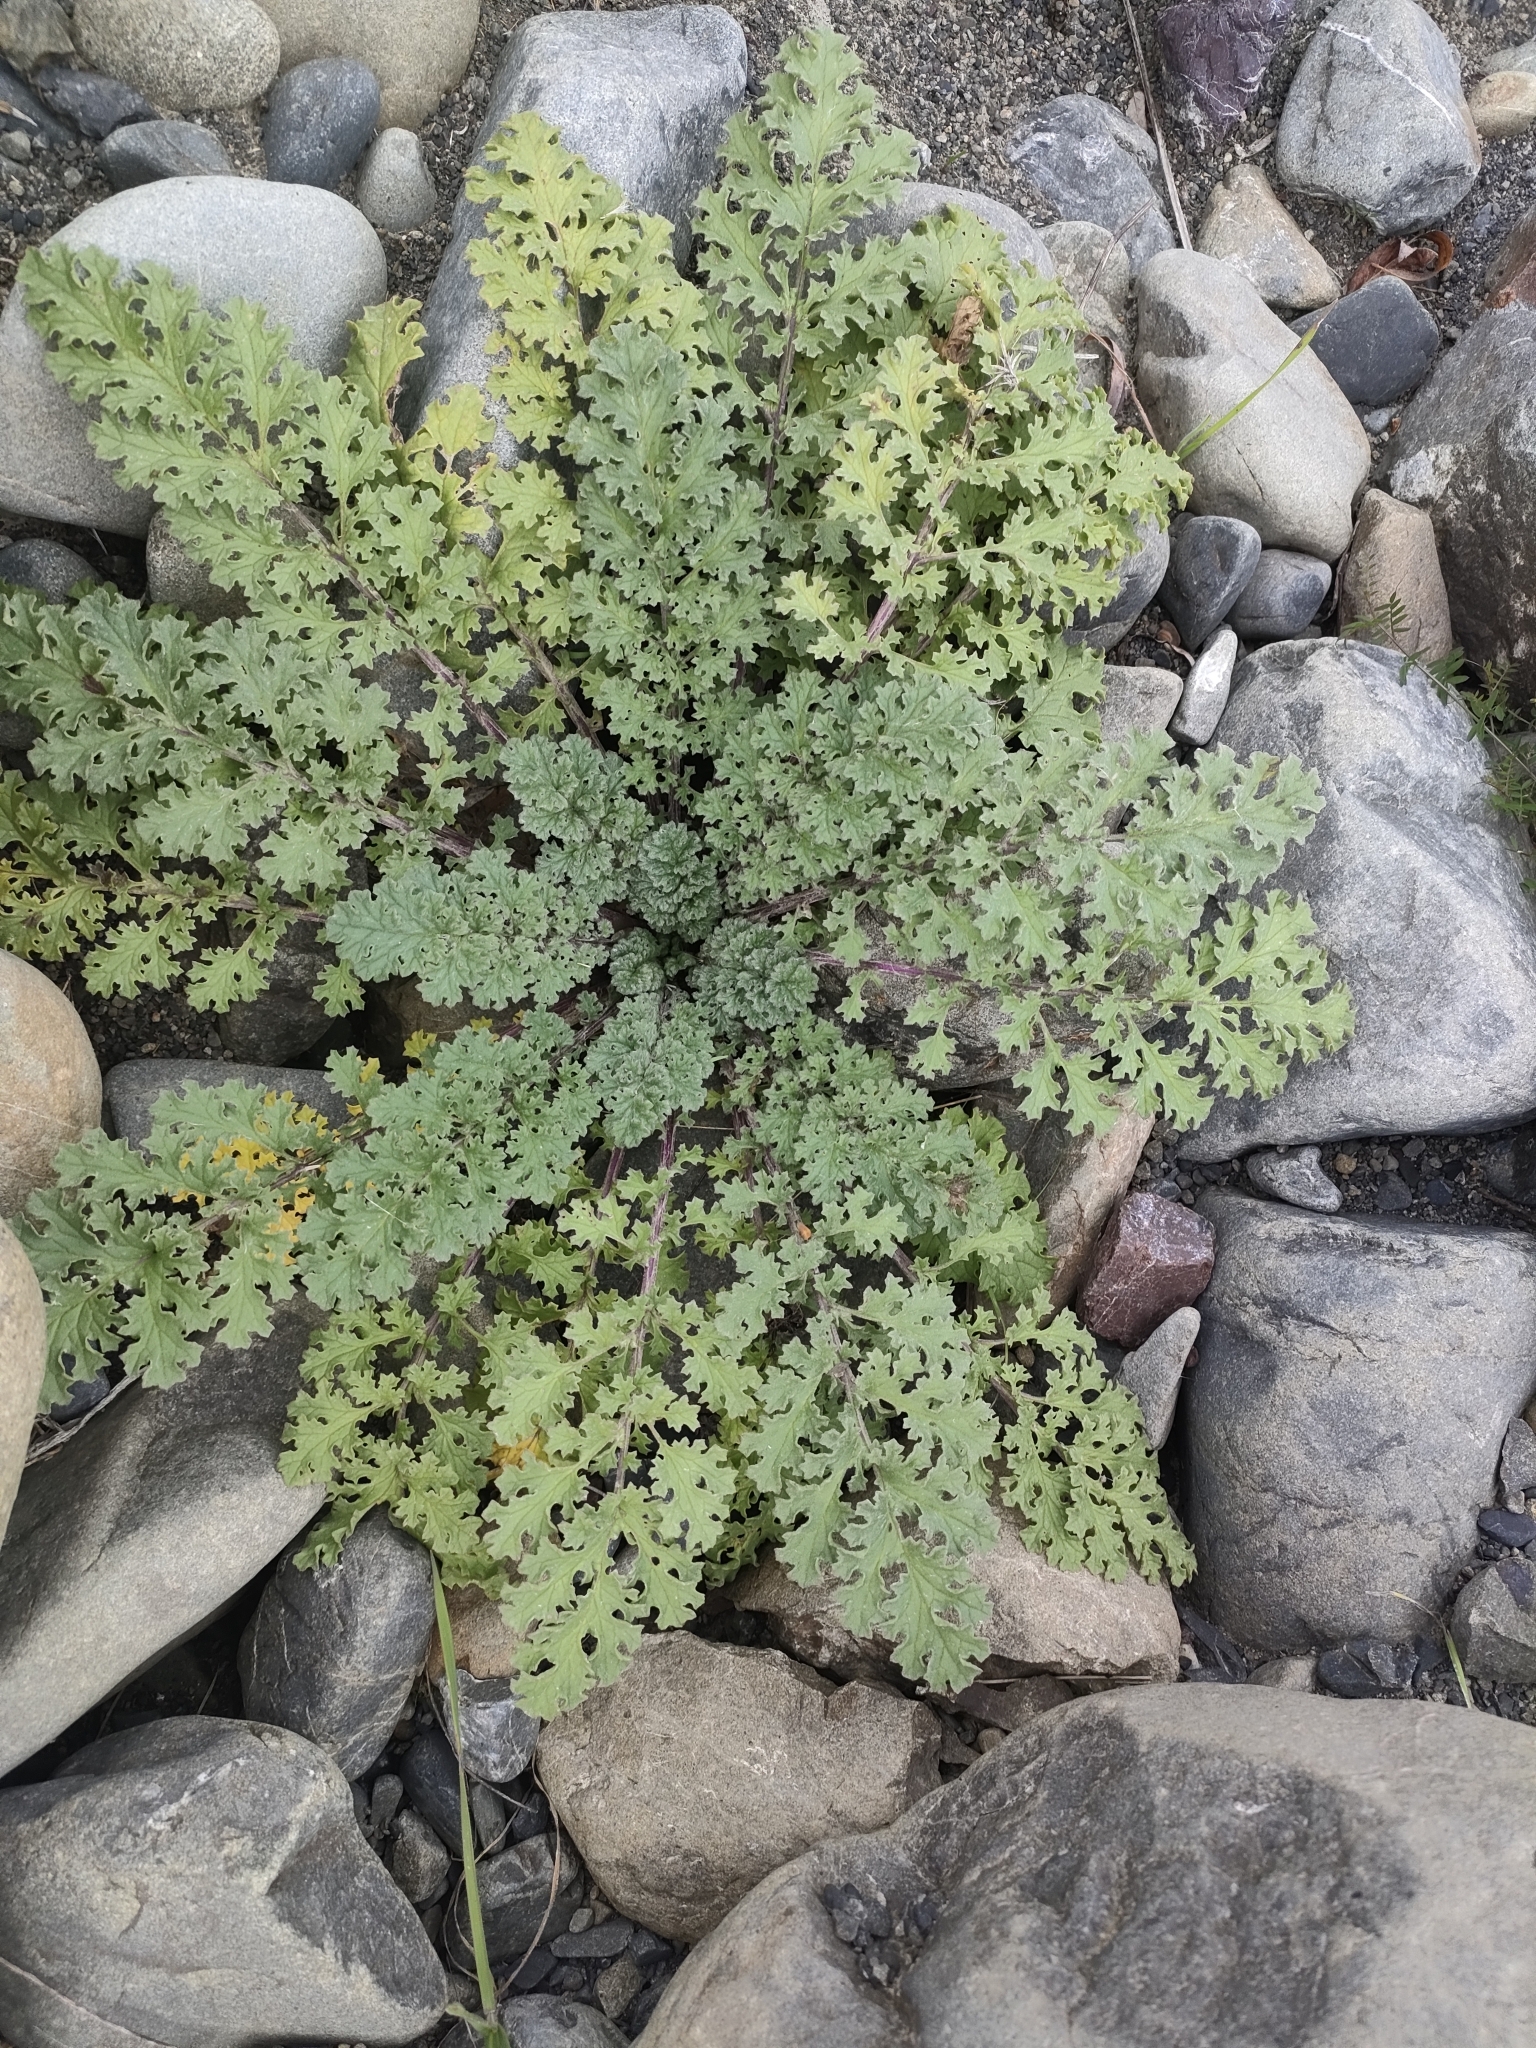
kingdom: Plantae
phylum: Tracheophyta
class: Magnoliopsida
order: Asterales
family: Asteraceae
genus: Jacobaea
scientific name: Jacobaea vulgaris
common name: Stinking willie
